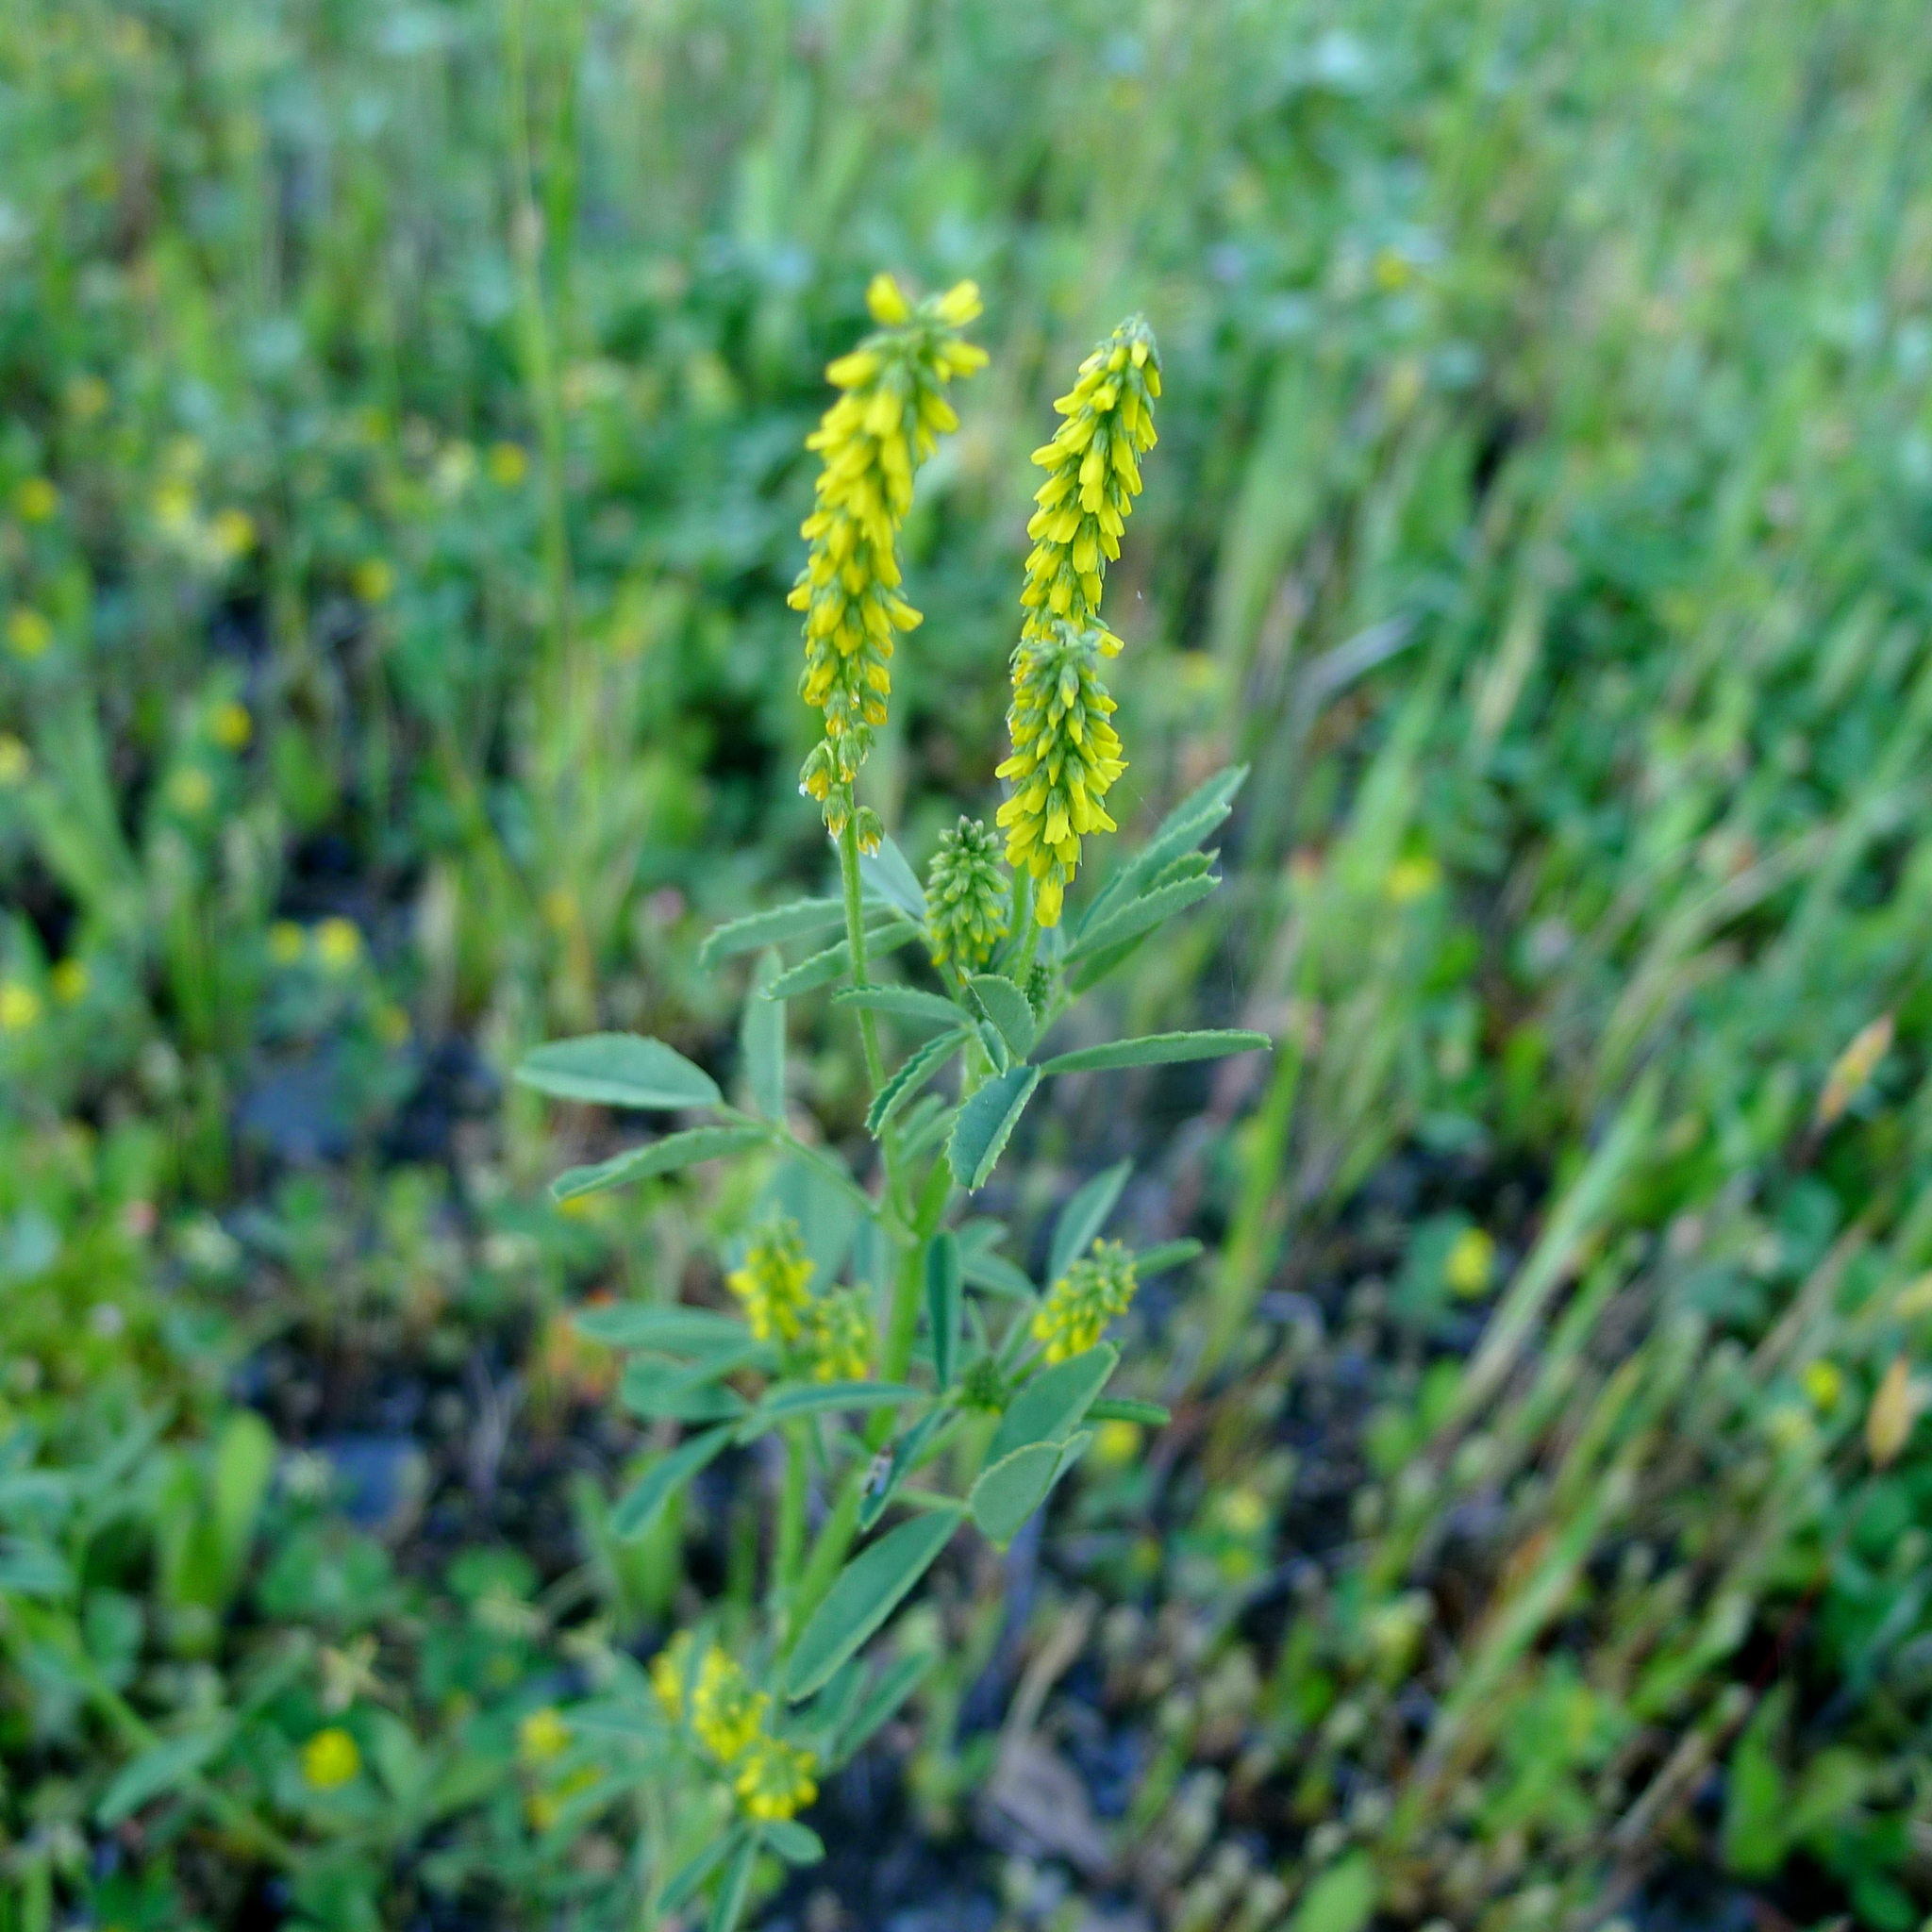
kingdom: Plantae
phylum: Tracheophyta
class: Magnoliopsida
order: Fabales
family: Fabaceae
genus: Melilotus
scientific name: Melilotus indicus
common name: Small melilot
